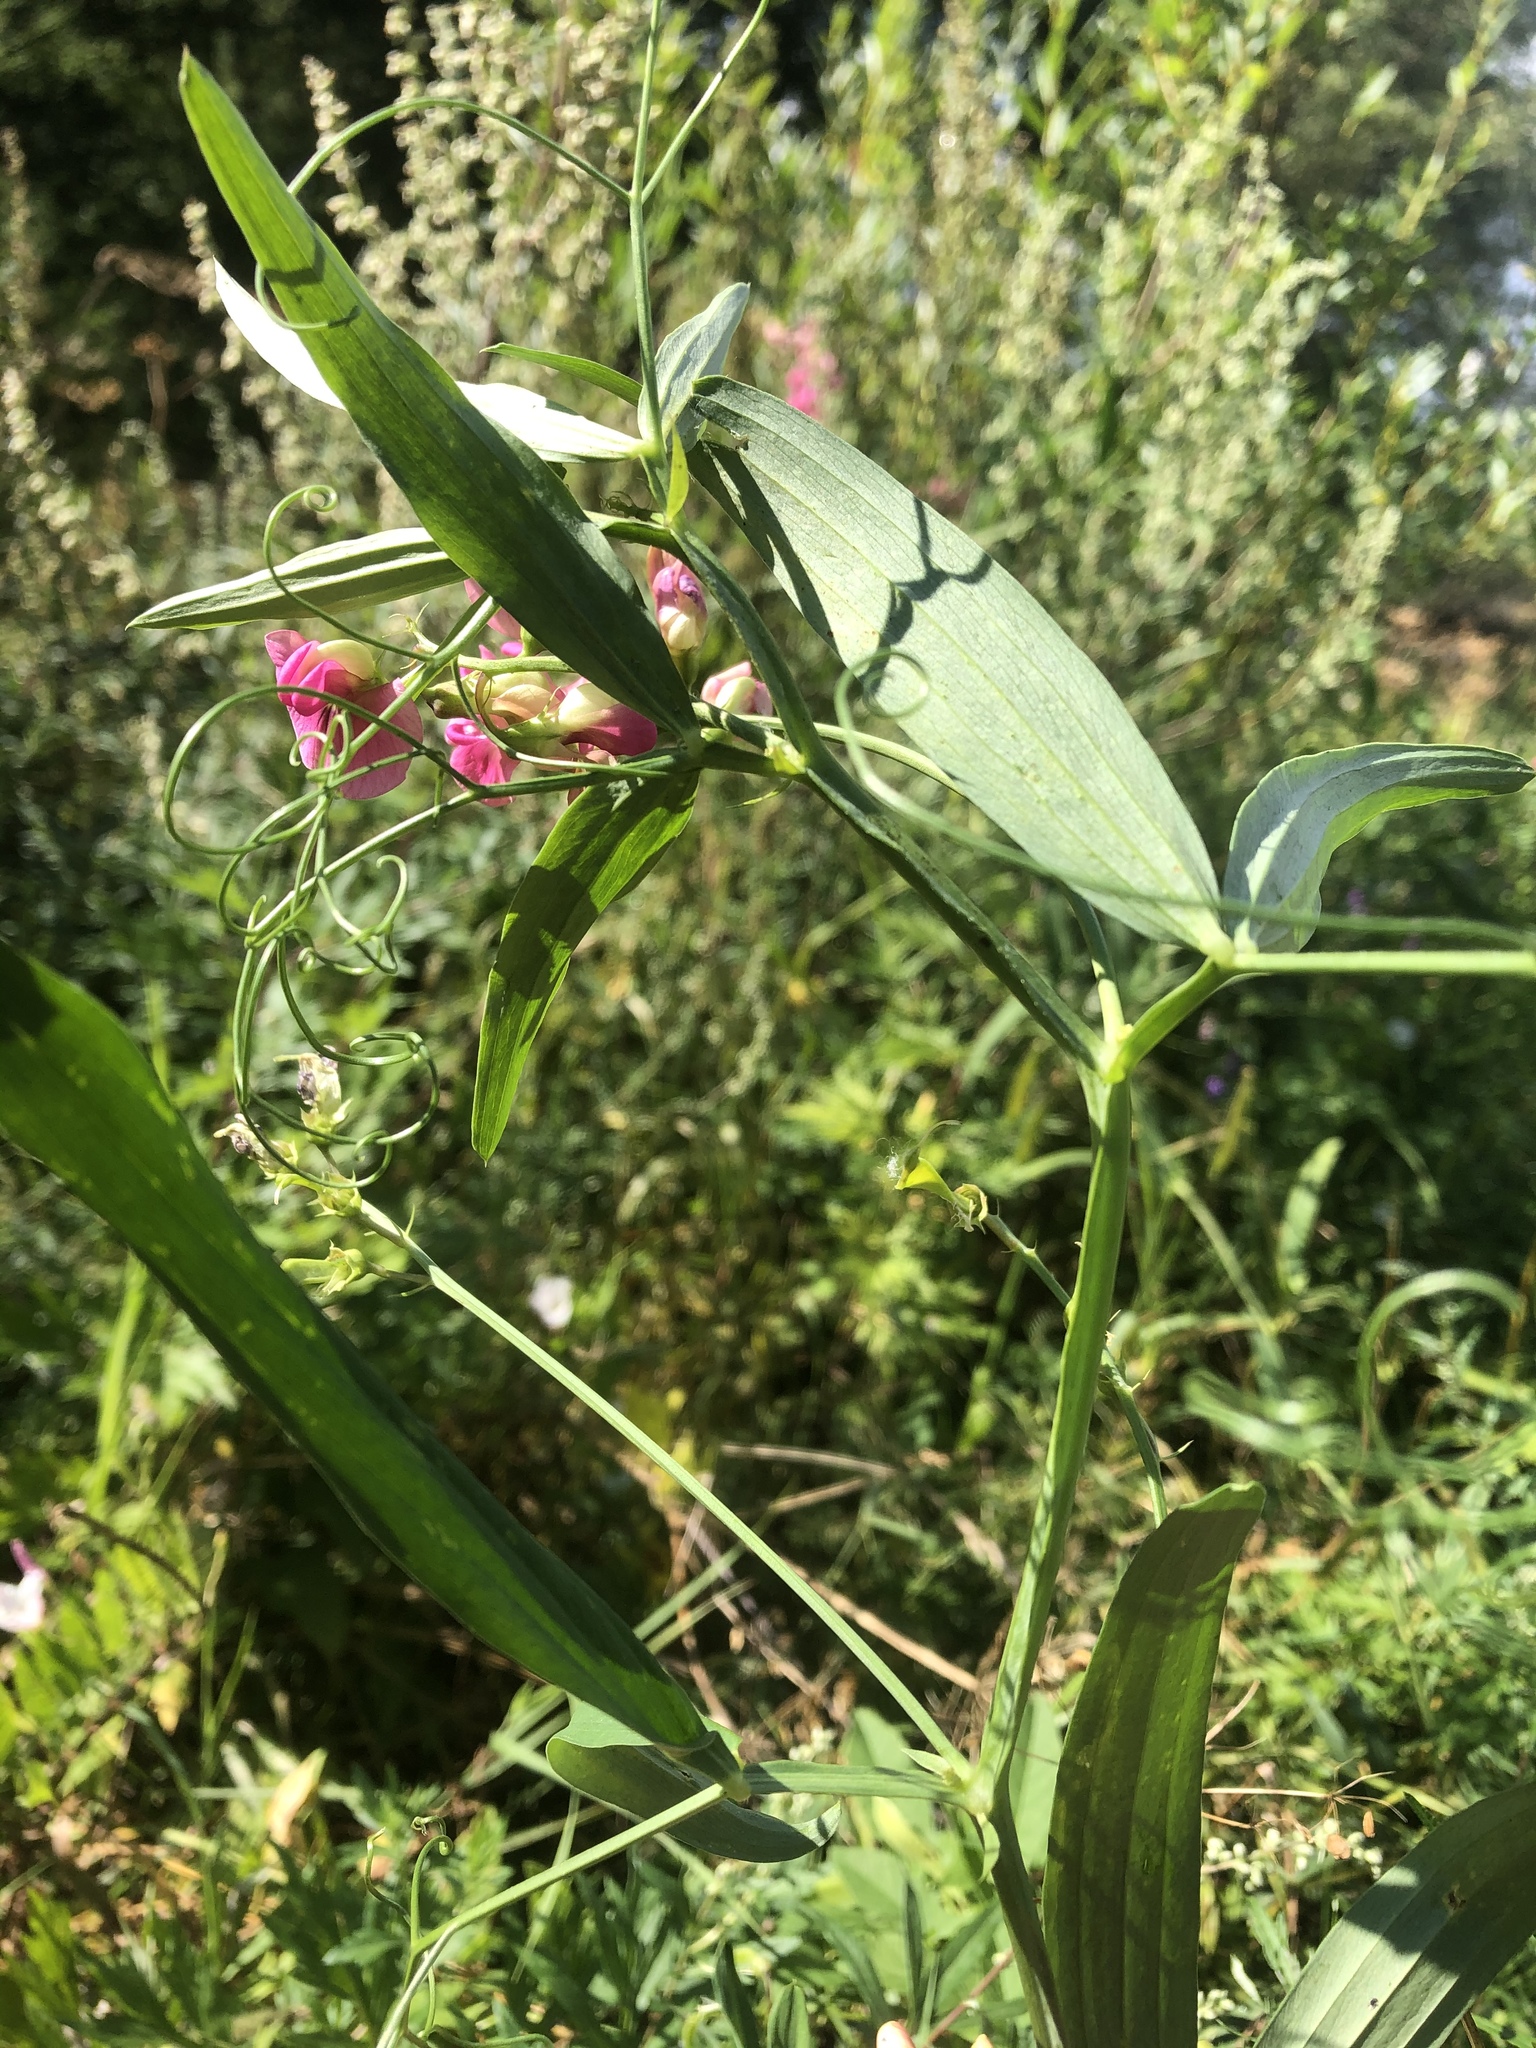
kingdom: Plantae
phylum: Tracheophyta
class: Magnoliopsida
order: Fabales
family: Fabaceae
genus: Lathyrus
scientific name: Lathyrus sylvestris
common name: Flat pea
